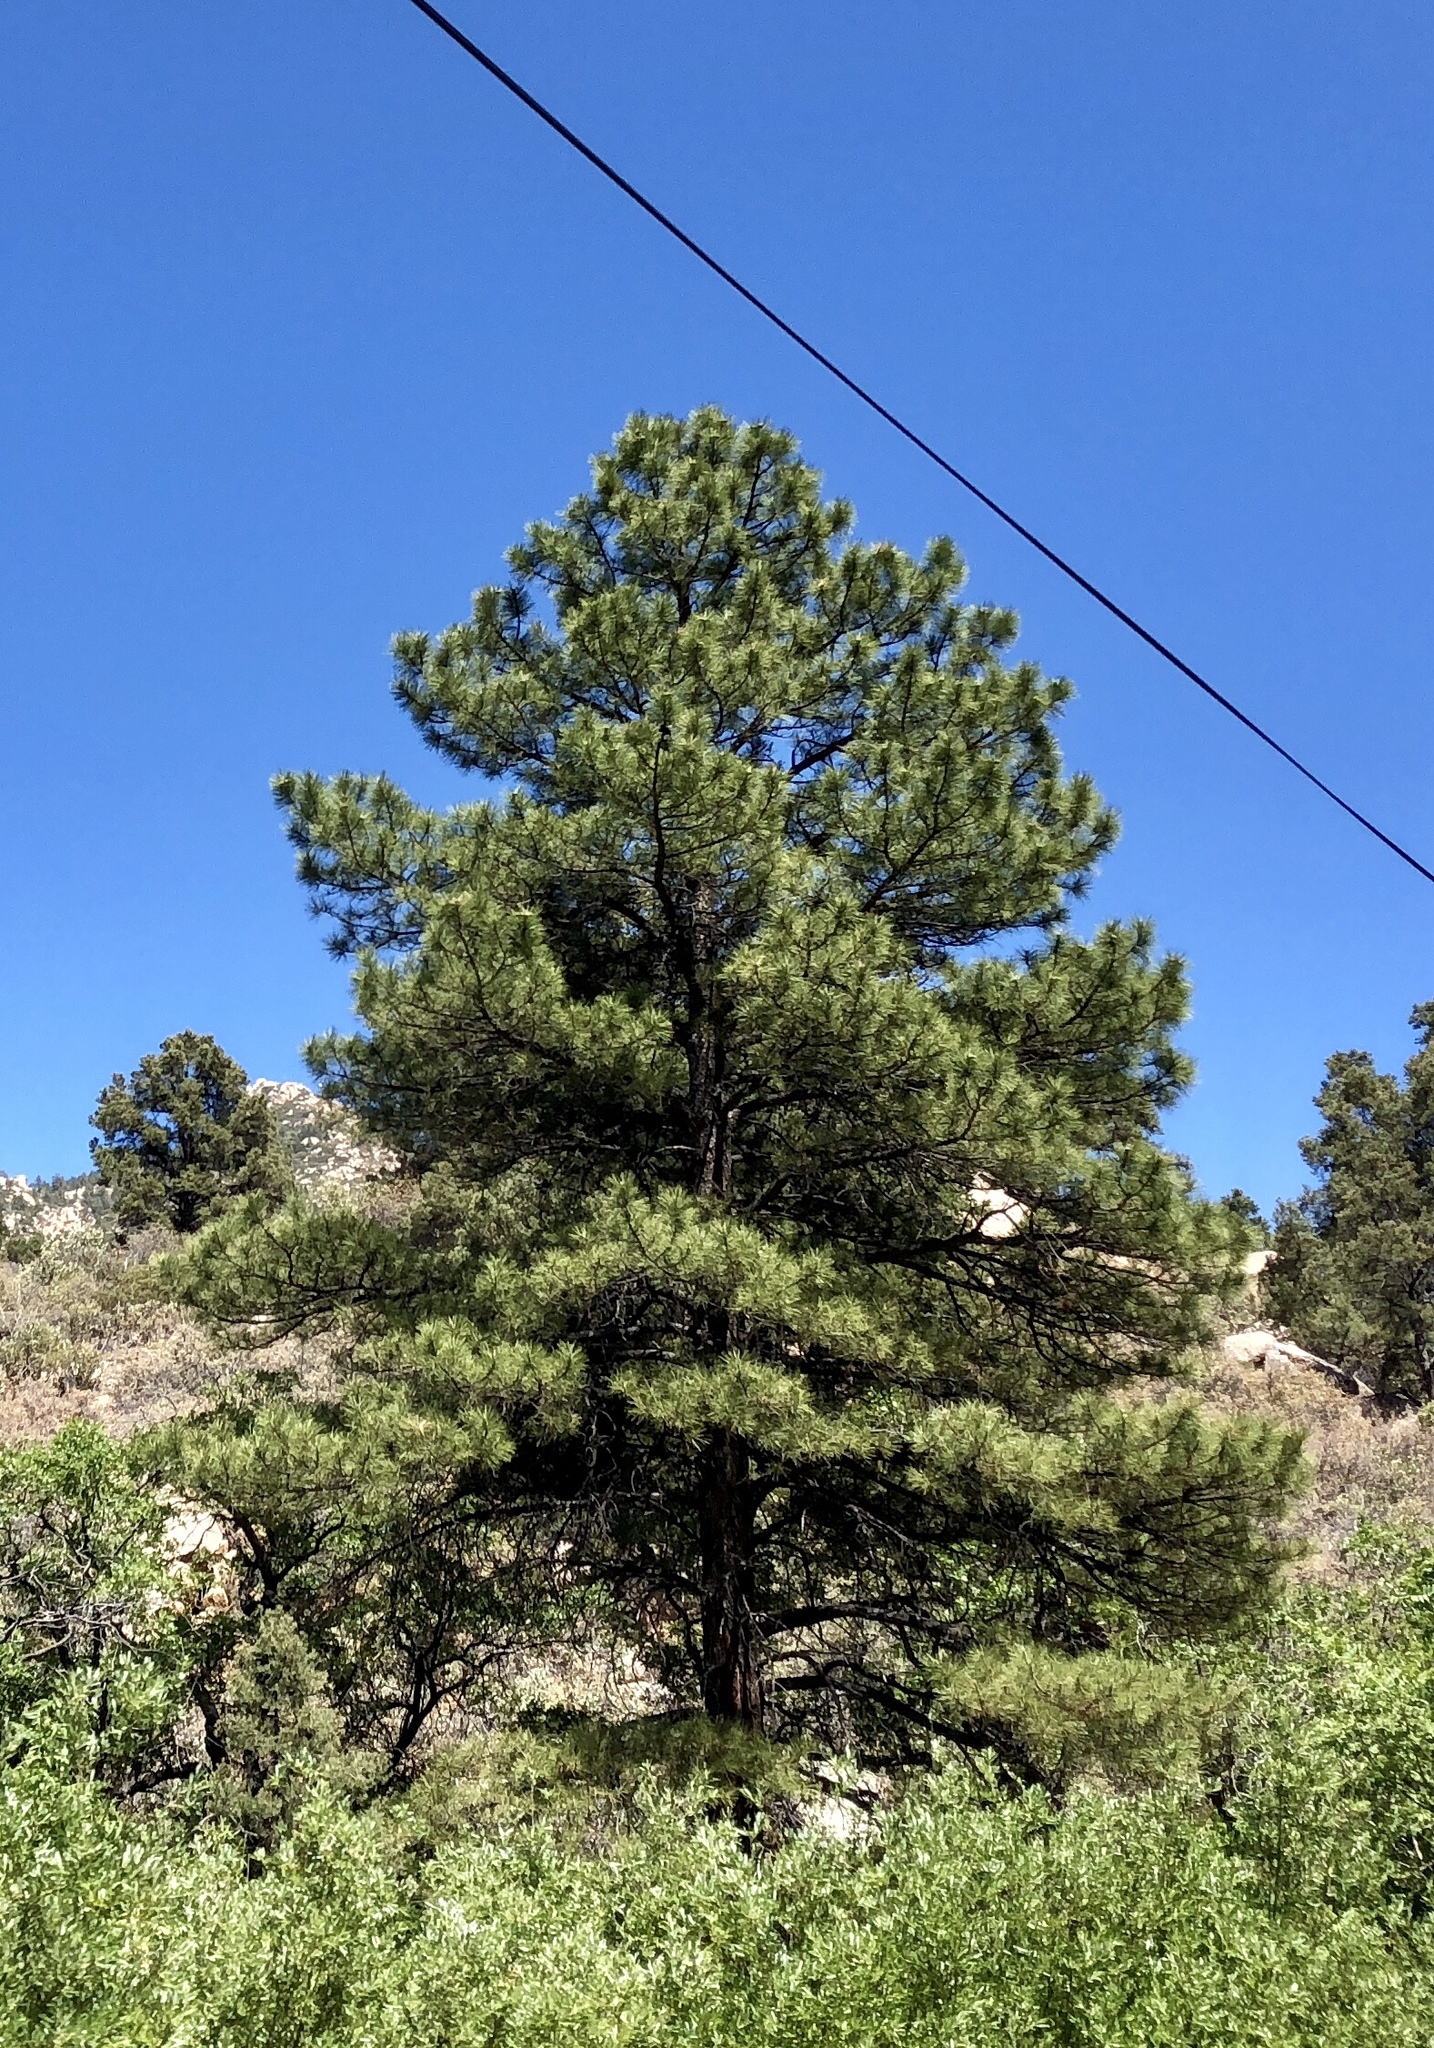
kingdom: Plantae
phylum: Tracheophyta
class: Pinopsida
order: Pinales
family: Pinaceae
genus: Pinus
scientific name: Pinus ponderosa
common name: Western yellow-pine
